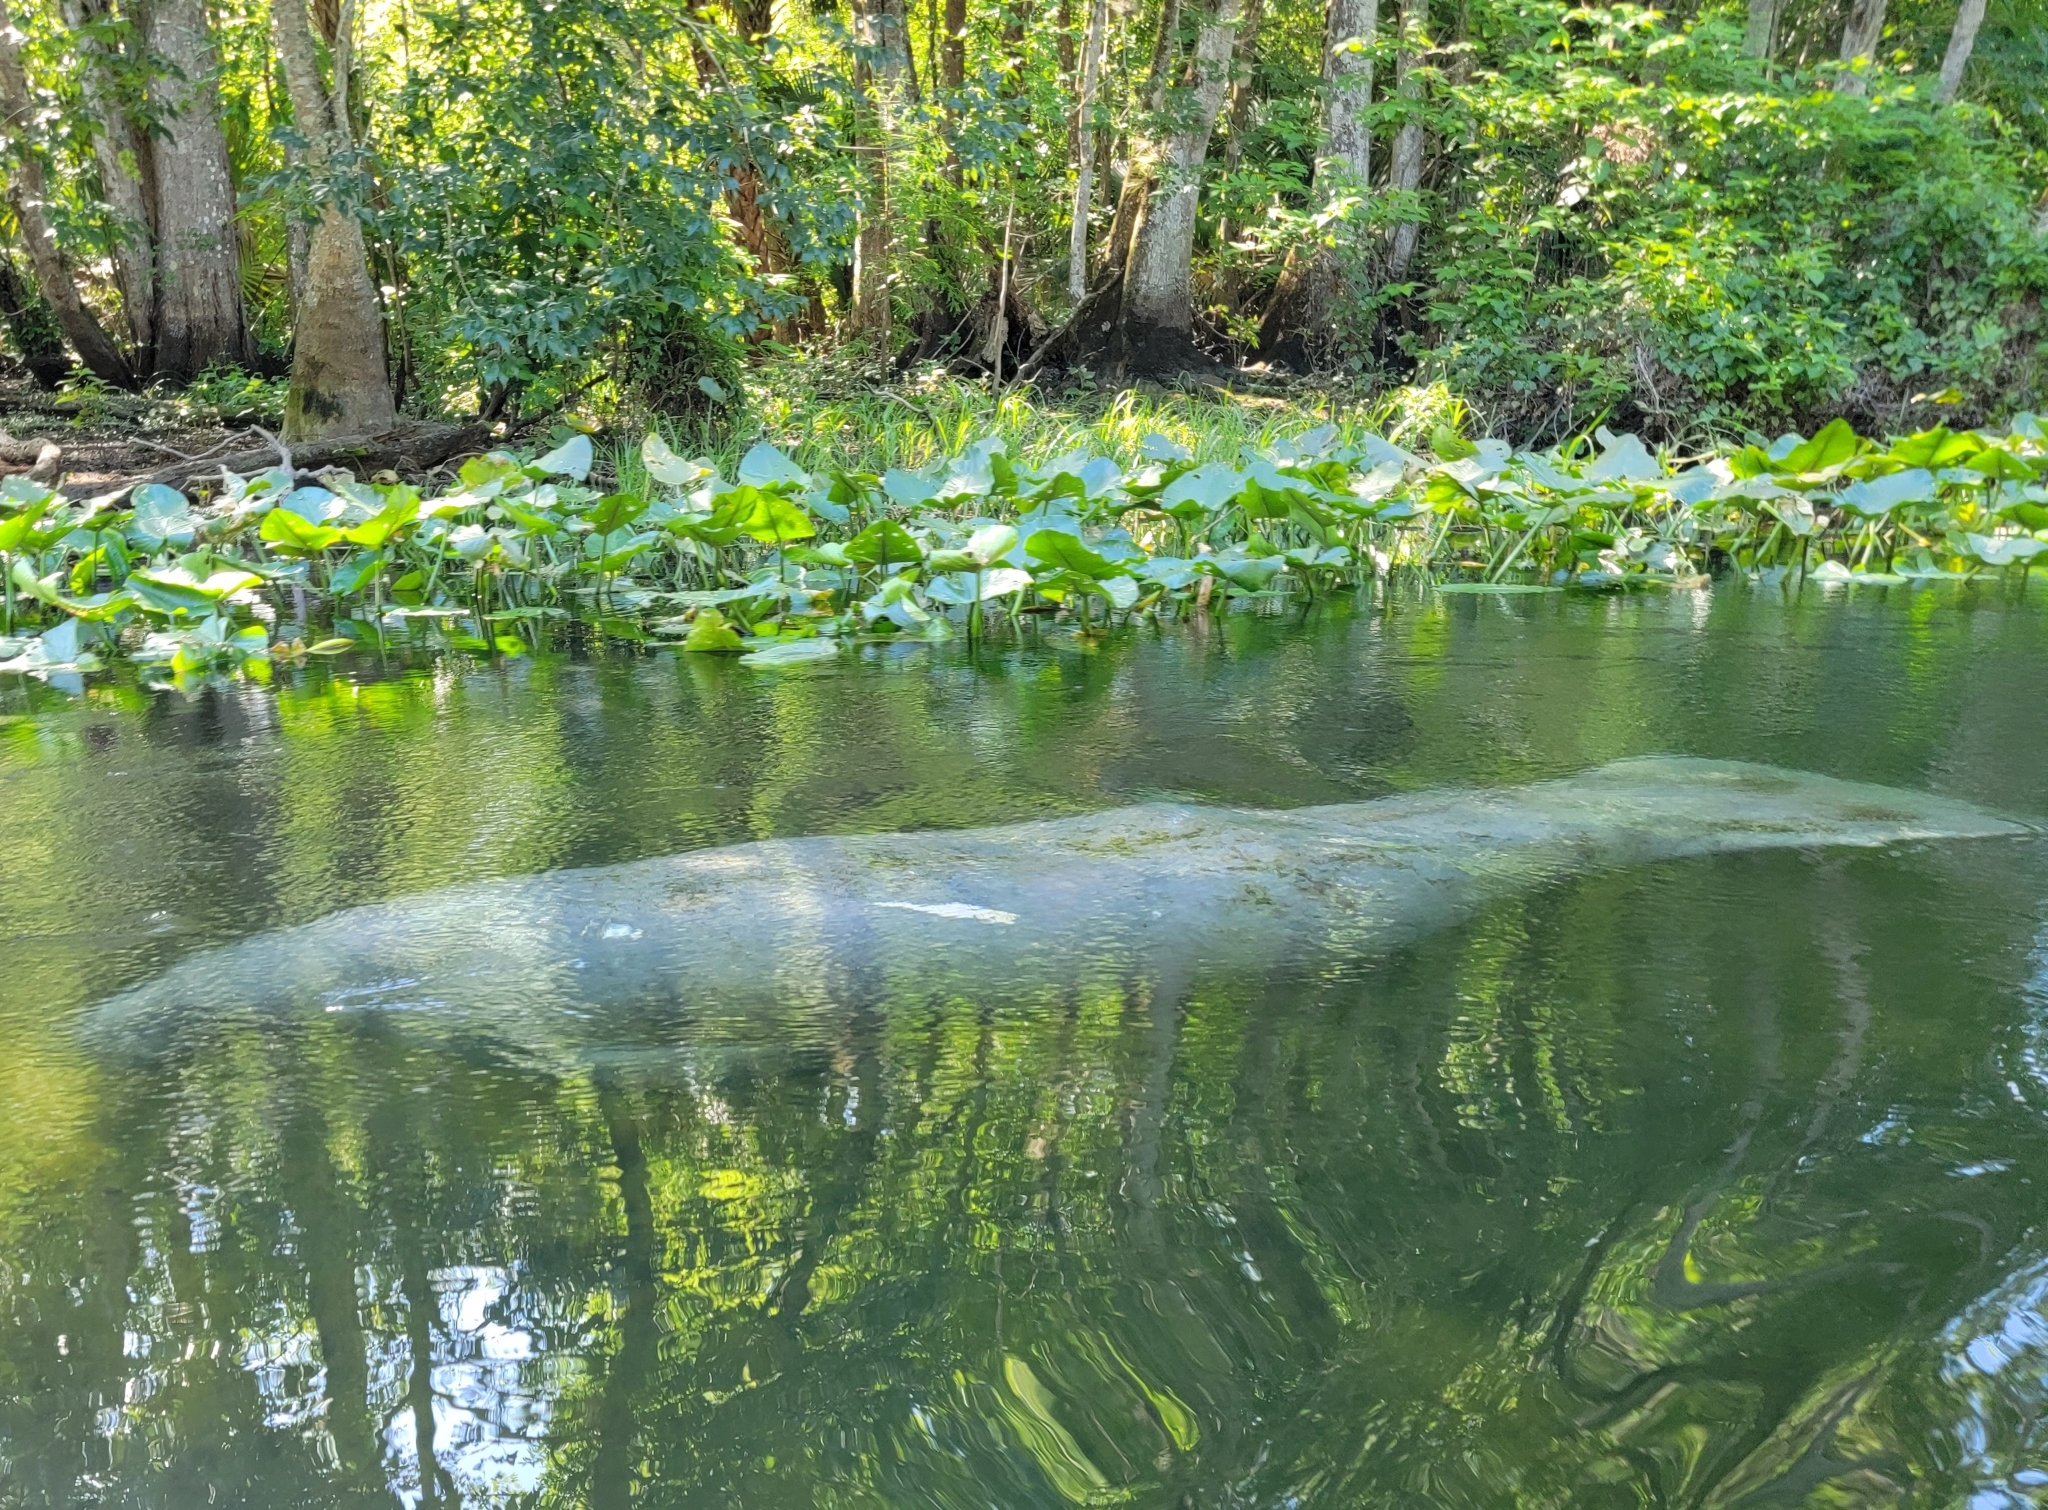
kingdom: Animalia
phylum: Chordata
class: Mammalia
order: Sirenia
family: Trichechidae
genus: Trichechus
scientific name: Trichechus manatus
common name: West indian manatee
